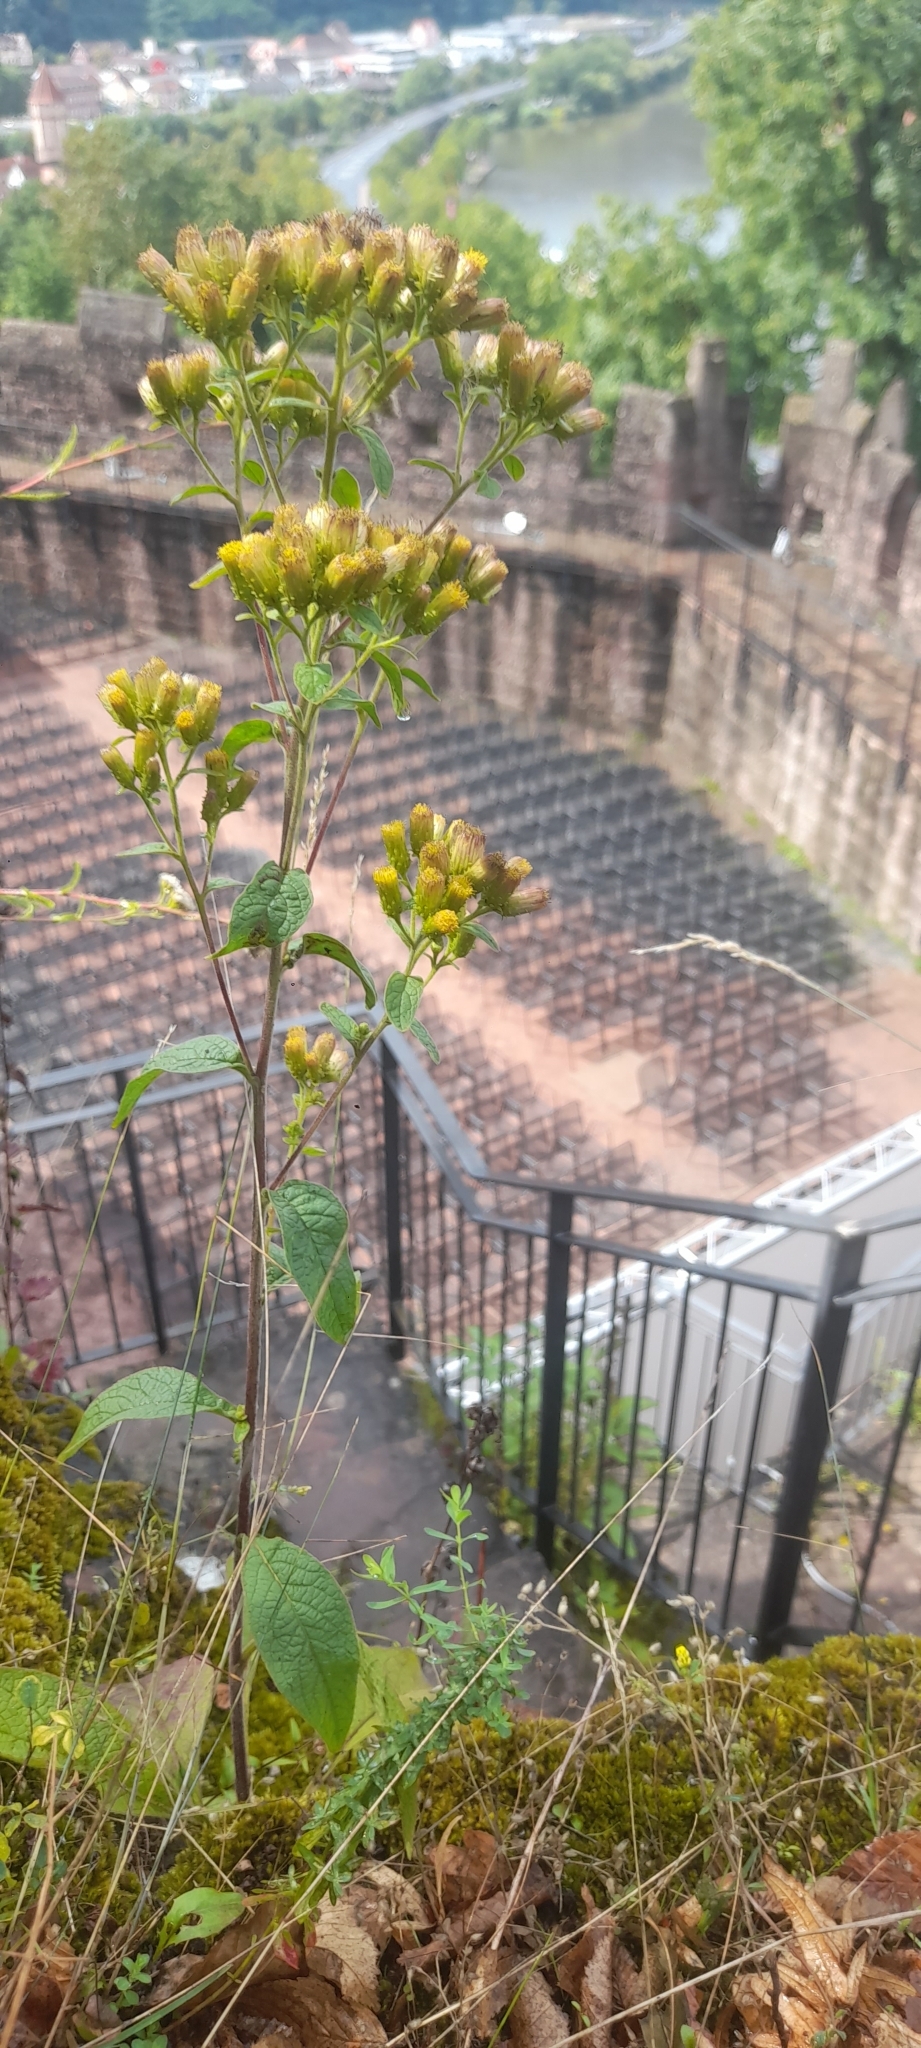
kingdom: Plantae
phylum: Tracheophyta
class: Magnoliopsida
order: Asterales
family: Asteraceae
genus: Pentanema
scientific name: Pentanema squarrosum
